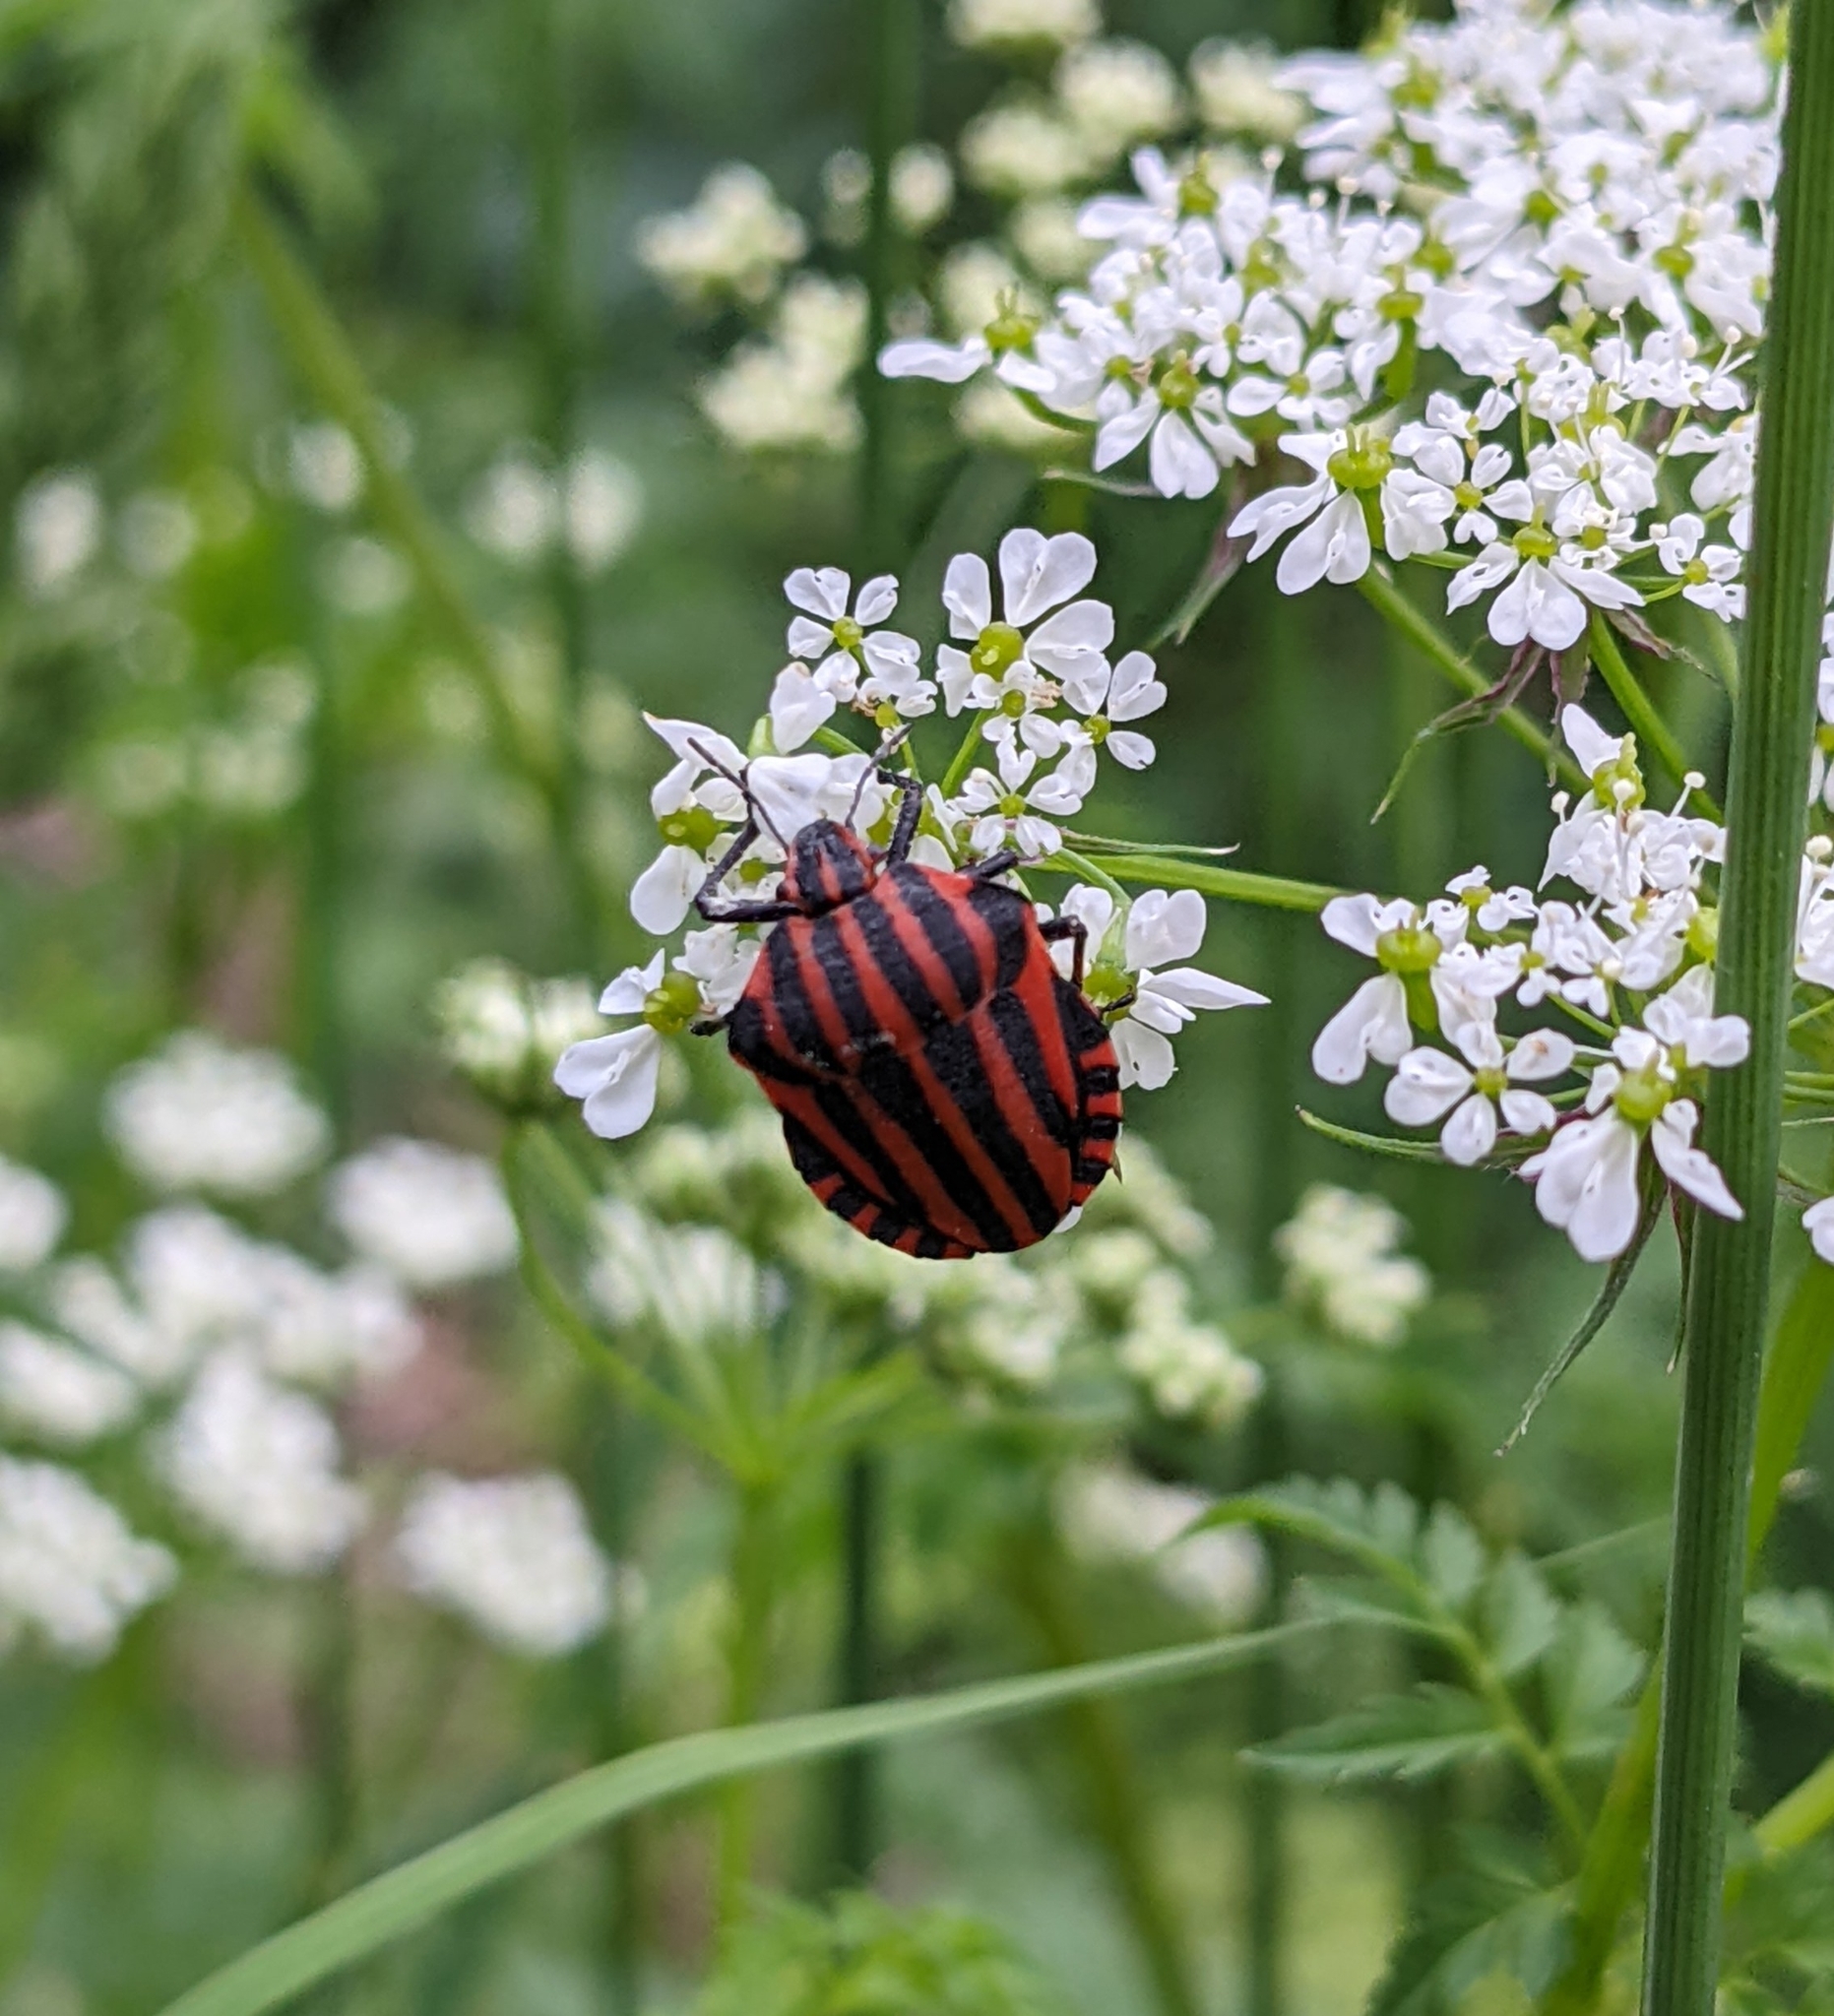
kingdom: Animalia
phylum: Arthropoda
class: Insecta
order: Hemiptera
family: Pentatomidae
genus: Graphosoma
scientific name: Graphosoma italicum
